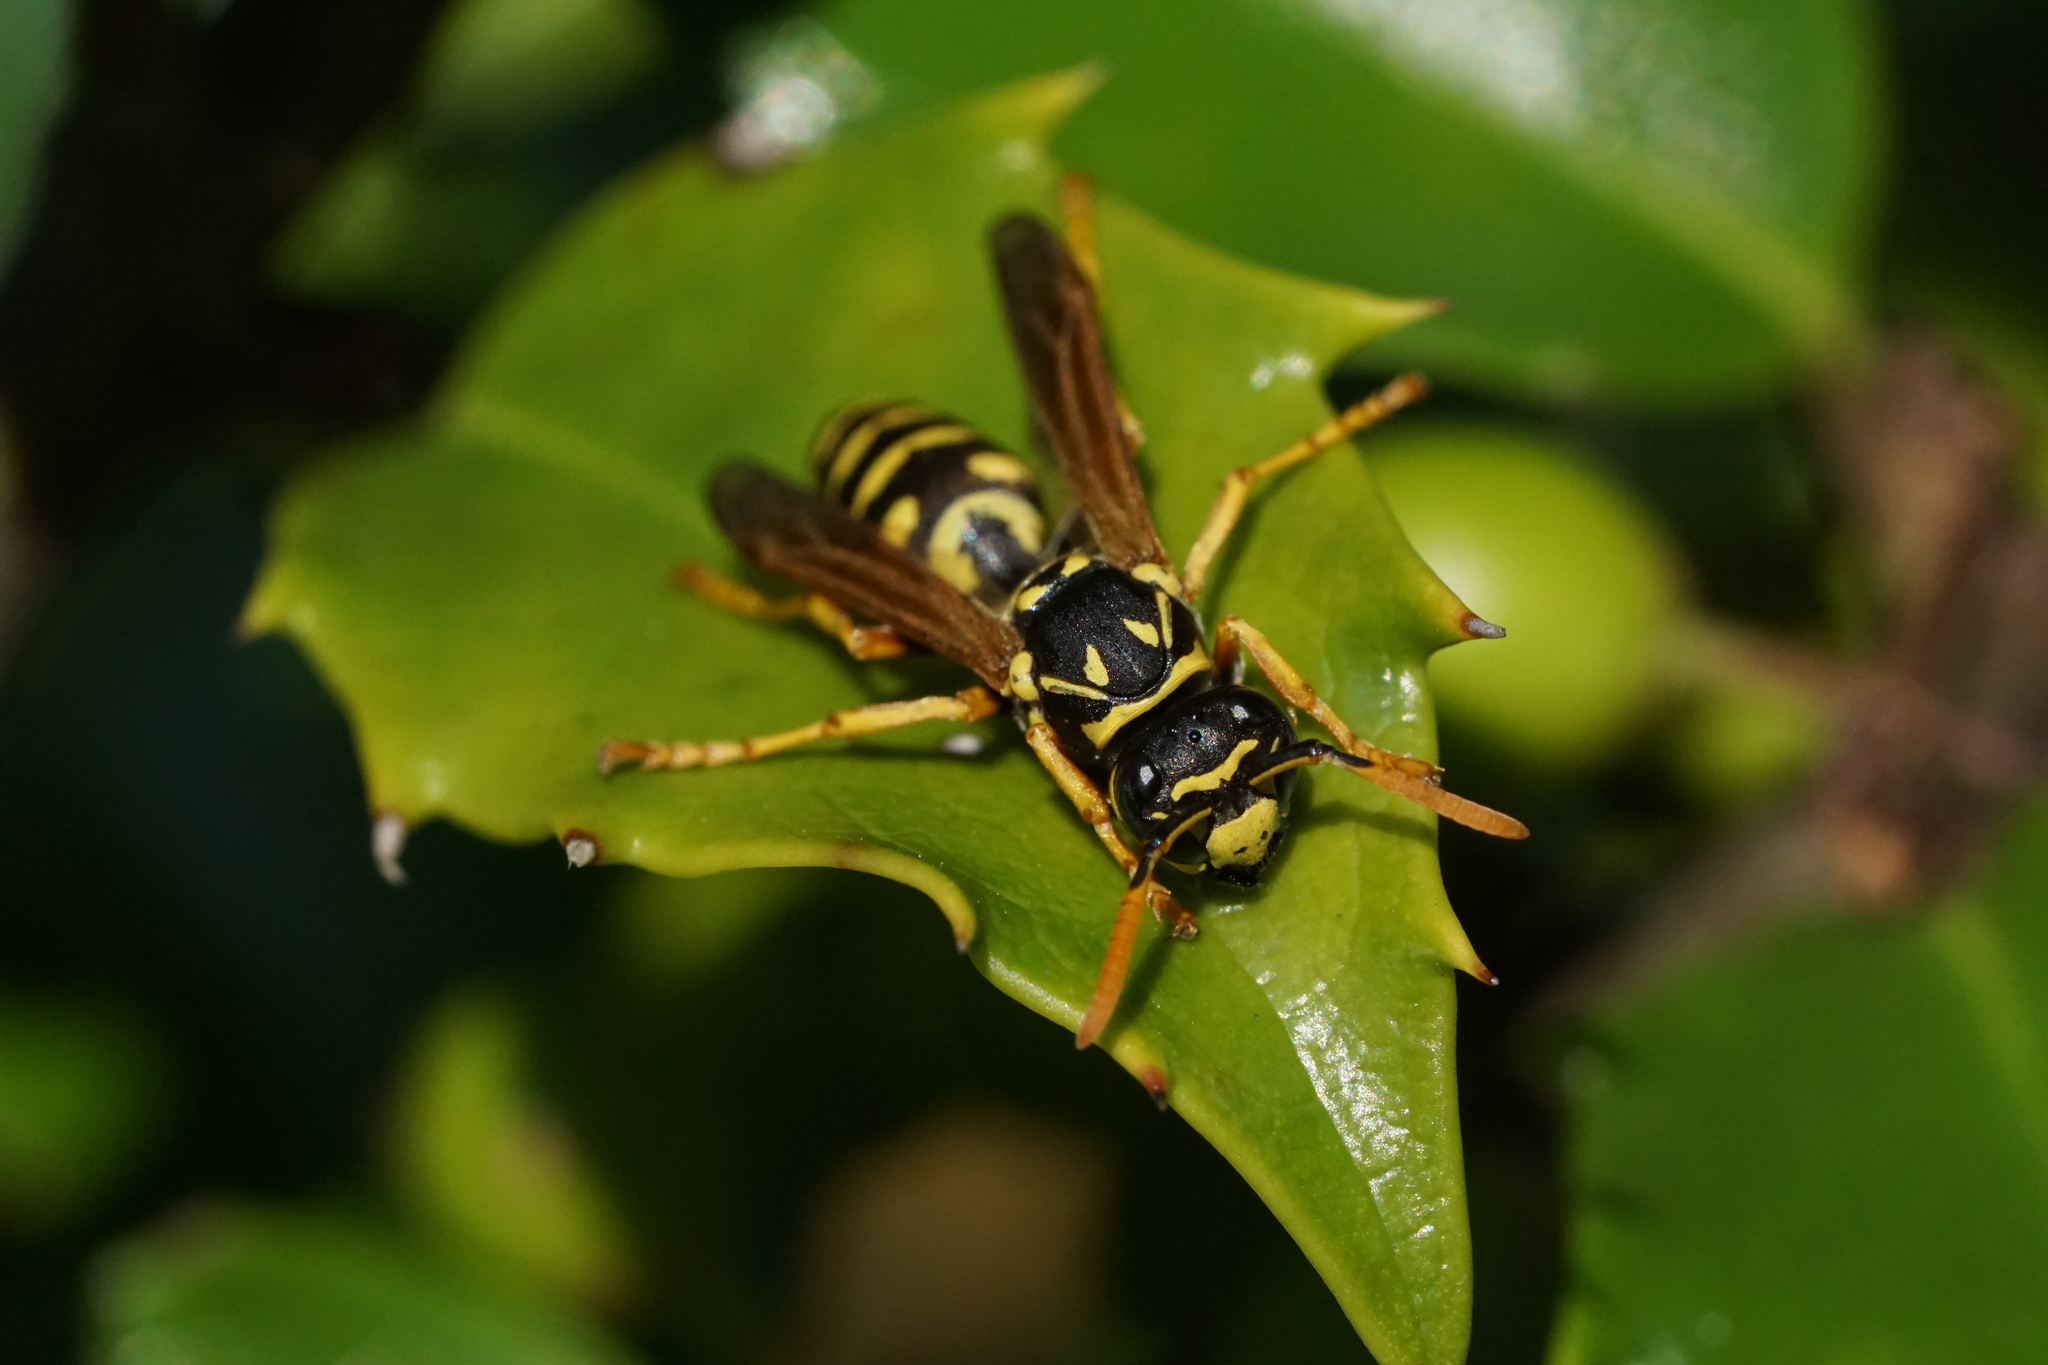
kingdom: Animalia
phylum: Arthropoda
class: Insecta
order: Hymenoptera
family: Eumenidae
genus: Polistes
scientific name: Polistes dominula
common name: Paper wasp
